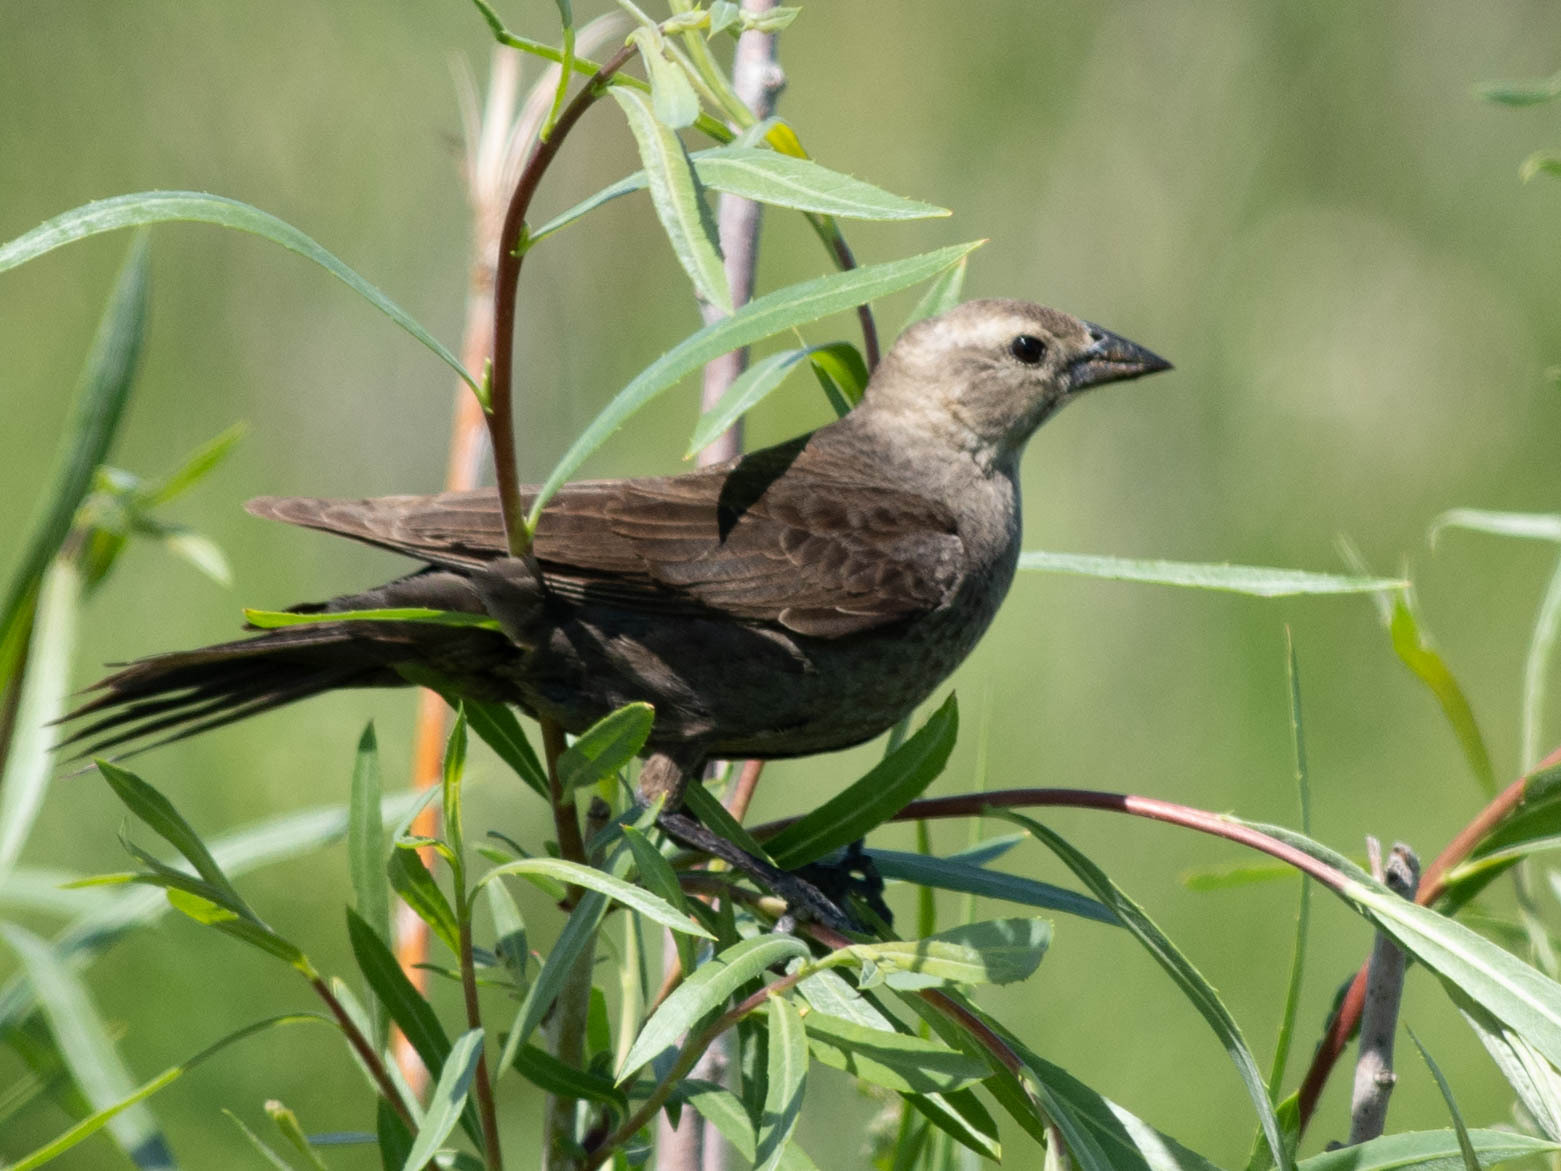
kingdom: Animalia
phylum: Chordata
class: Aves
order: Passeriformes
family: Icteridae
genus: Molothrus
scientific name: Molothrus ater
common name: Brown-headed cowbird
